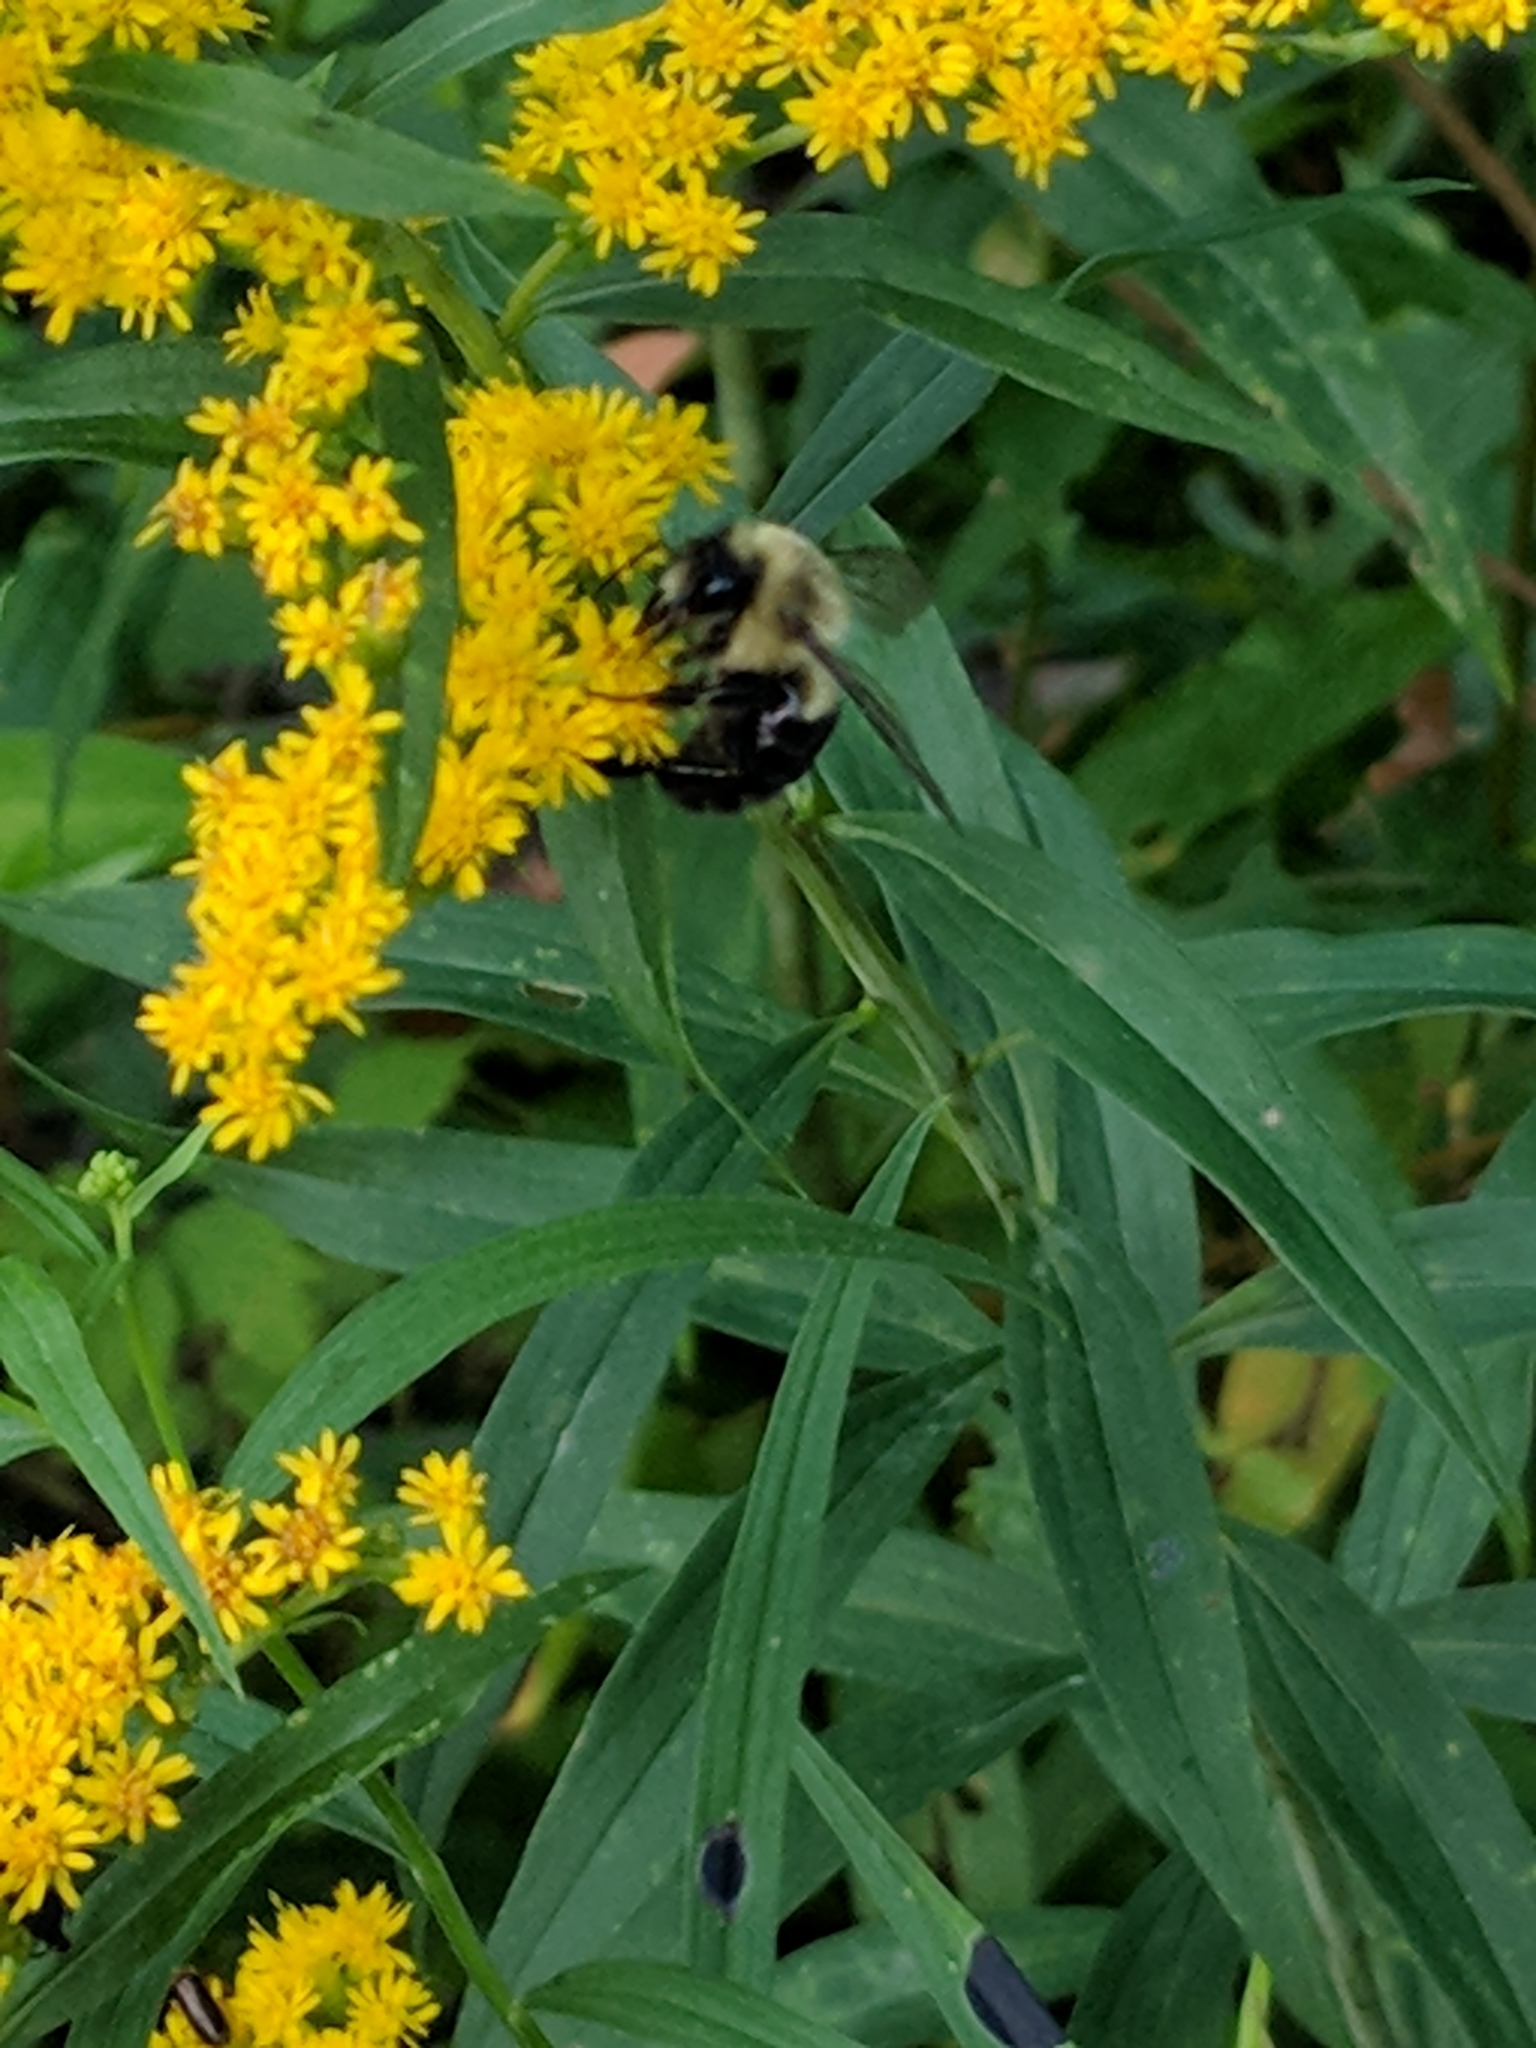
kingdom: Animalia
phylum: Arthropoda
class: Insecta
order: Hymenoptera
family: Apidae
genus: Bombus
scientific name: Bombus impatiens
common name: Common eastern bumble bee
